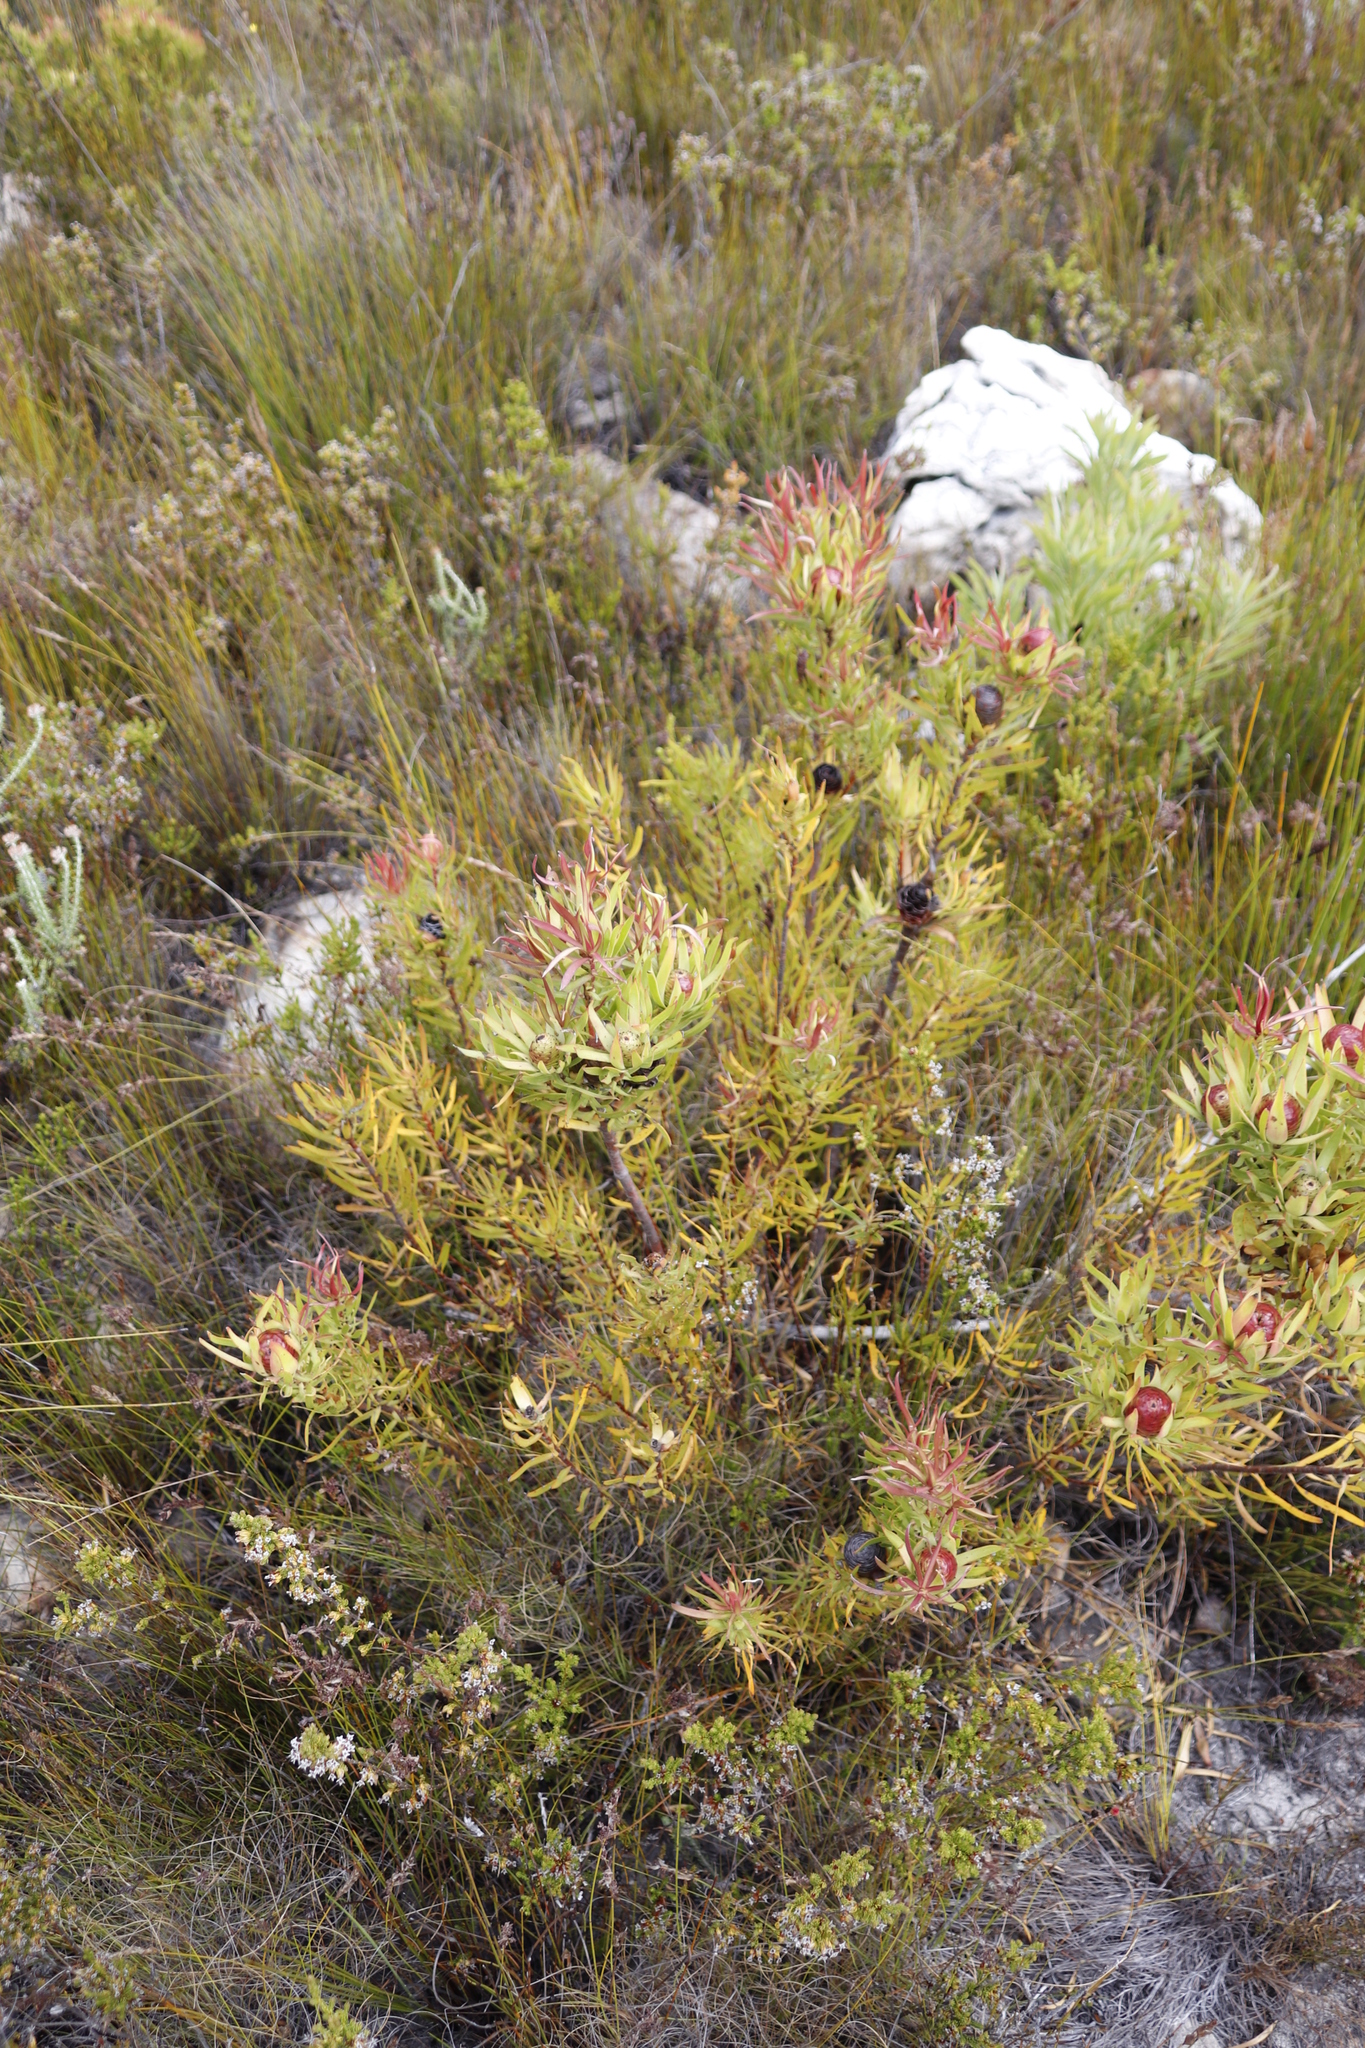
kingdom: Plantae
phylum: Tracheophyta
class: Magnoliopsida
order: Proteales
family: Proteaceae
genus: Leucadendron
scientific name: Leucadendron spissifolium
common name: Spear-leaf conebush
